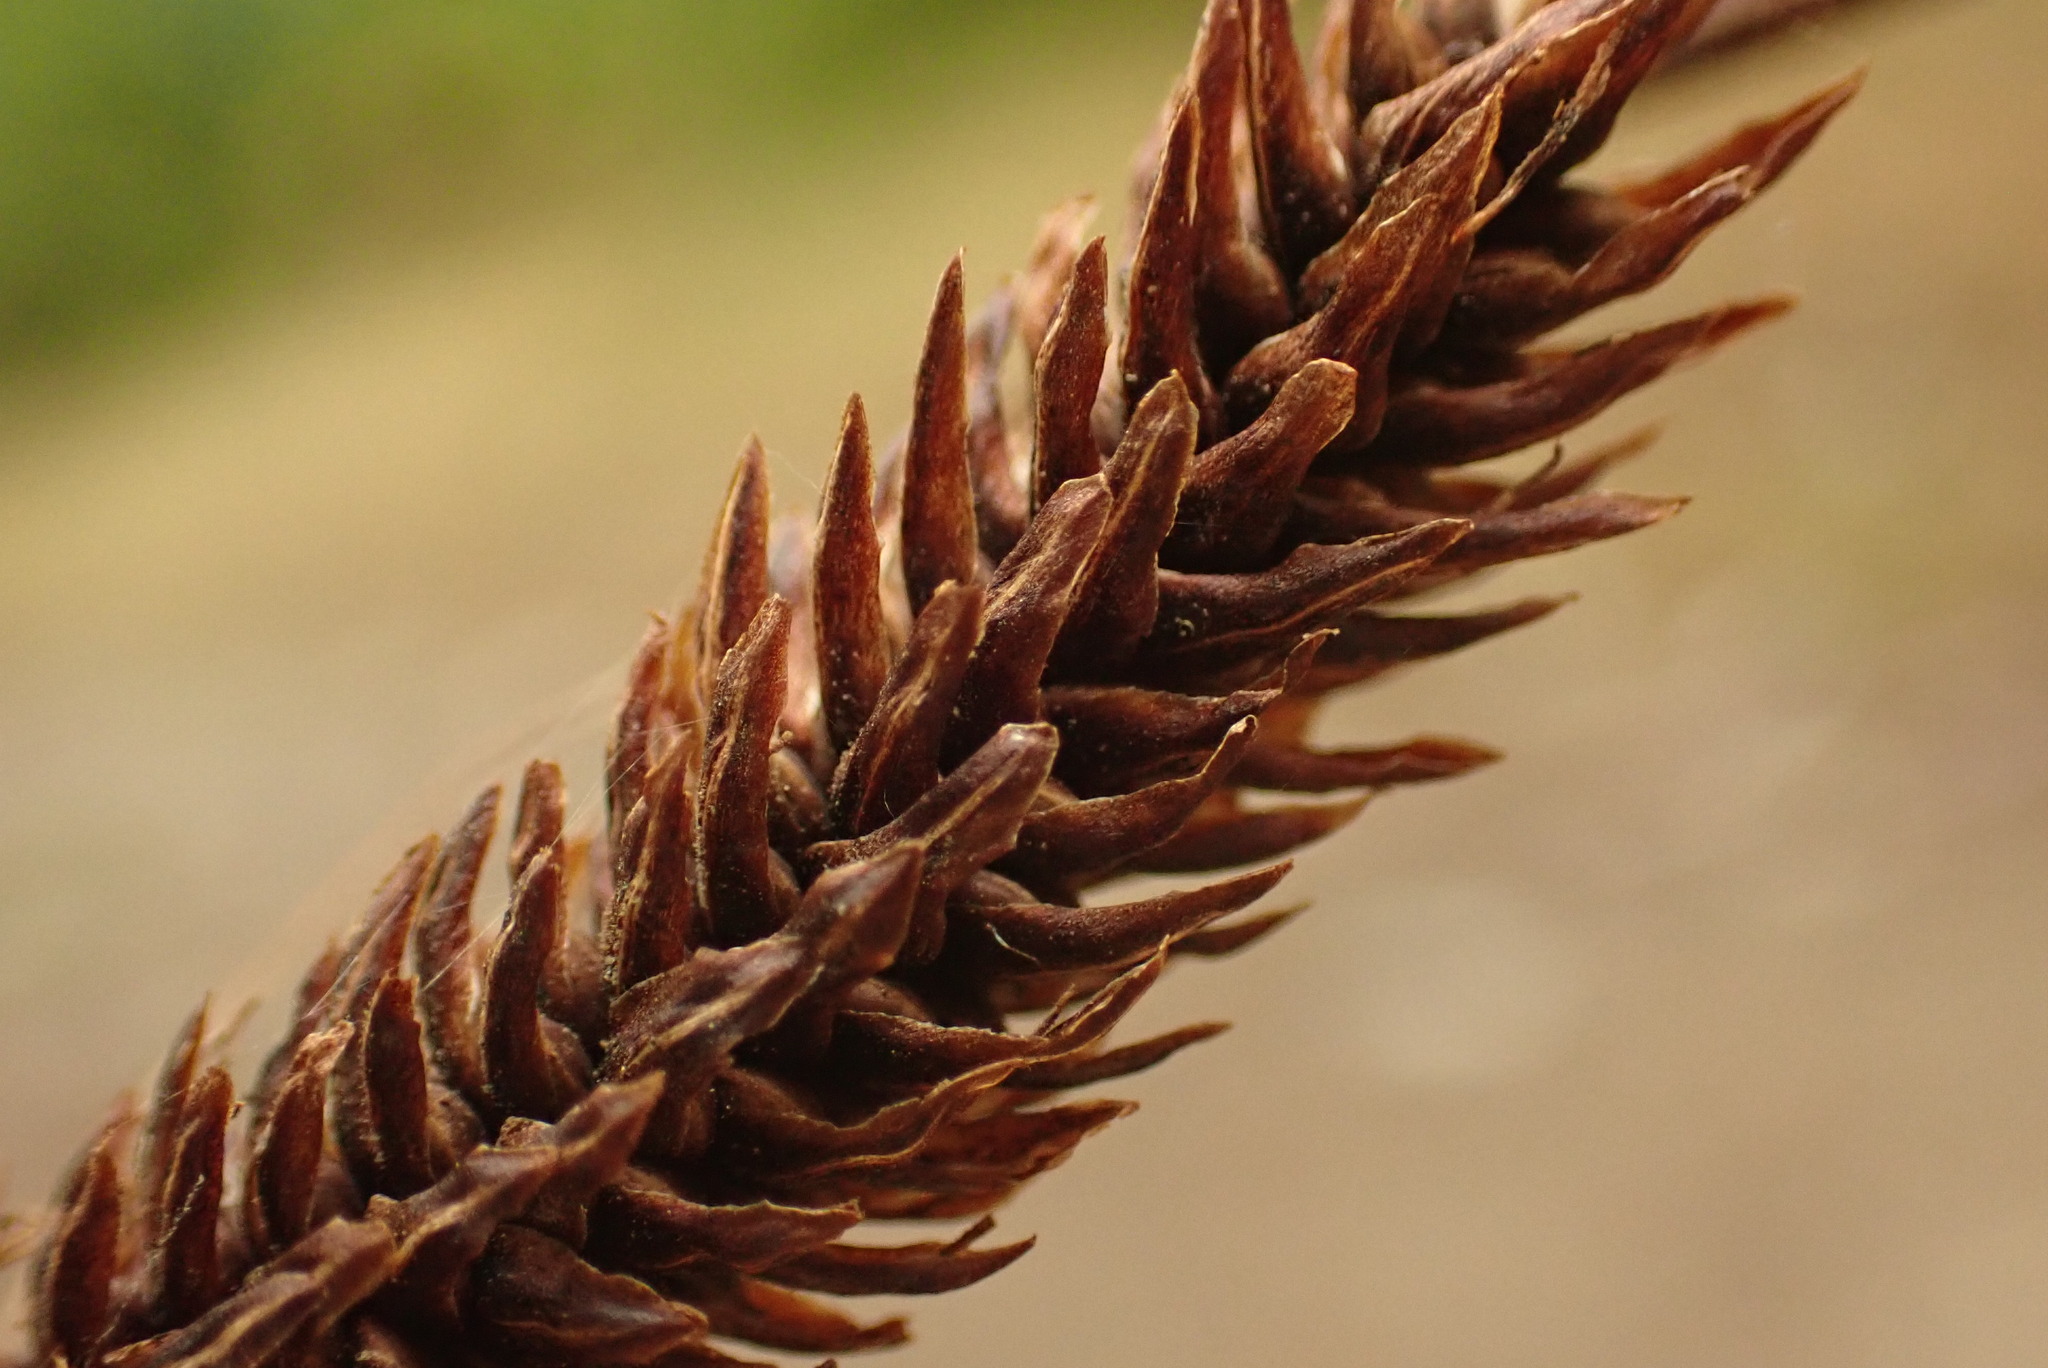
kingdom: Plantae
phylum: Tracheophyta
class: Liliopsida
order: Poales
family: Cyperaceae
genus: Carex
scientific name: Carex obnupta
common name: Slough sedge
